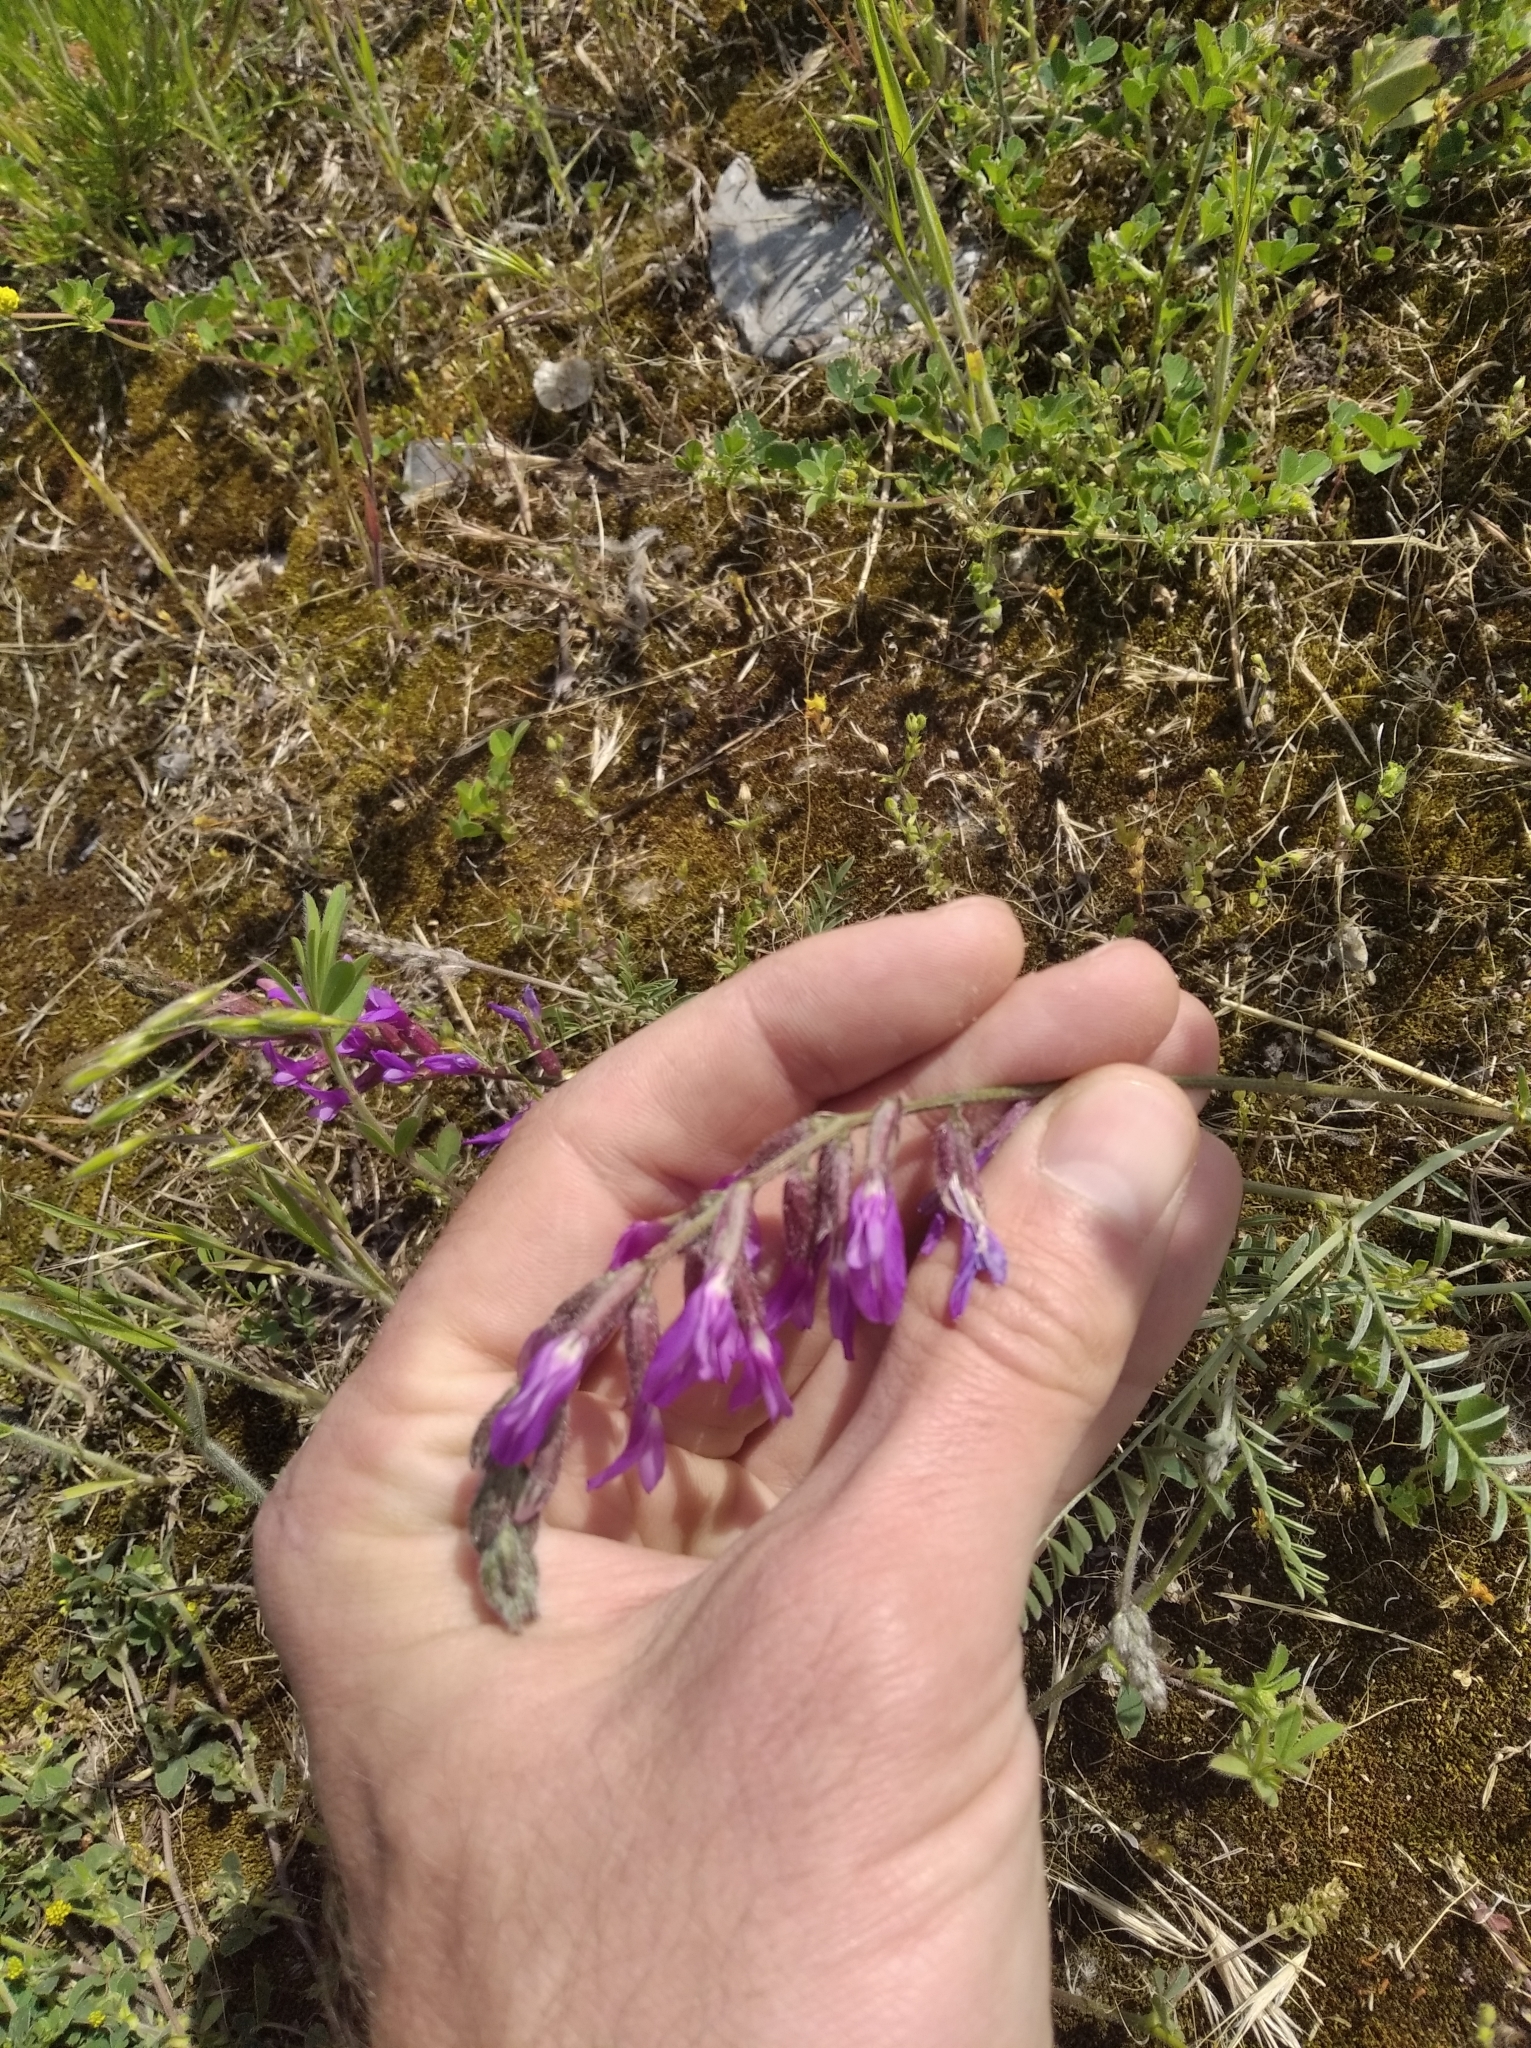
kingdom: Plantae
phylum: Tracheophyta
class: Magnoliopsida
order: Fabales
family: Fabaceae
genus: Astragalus
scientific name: Astragalus varius
